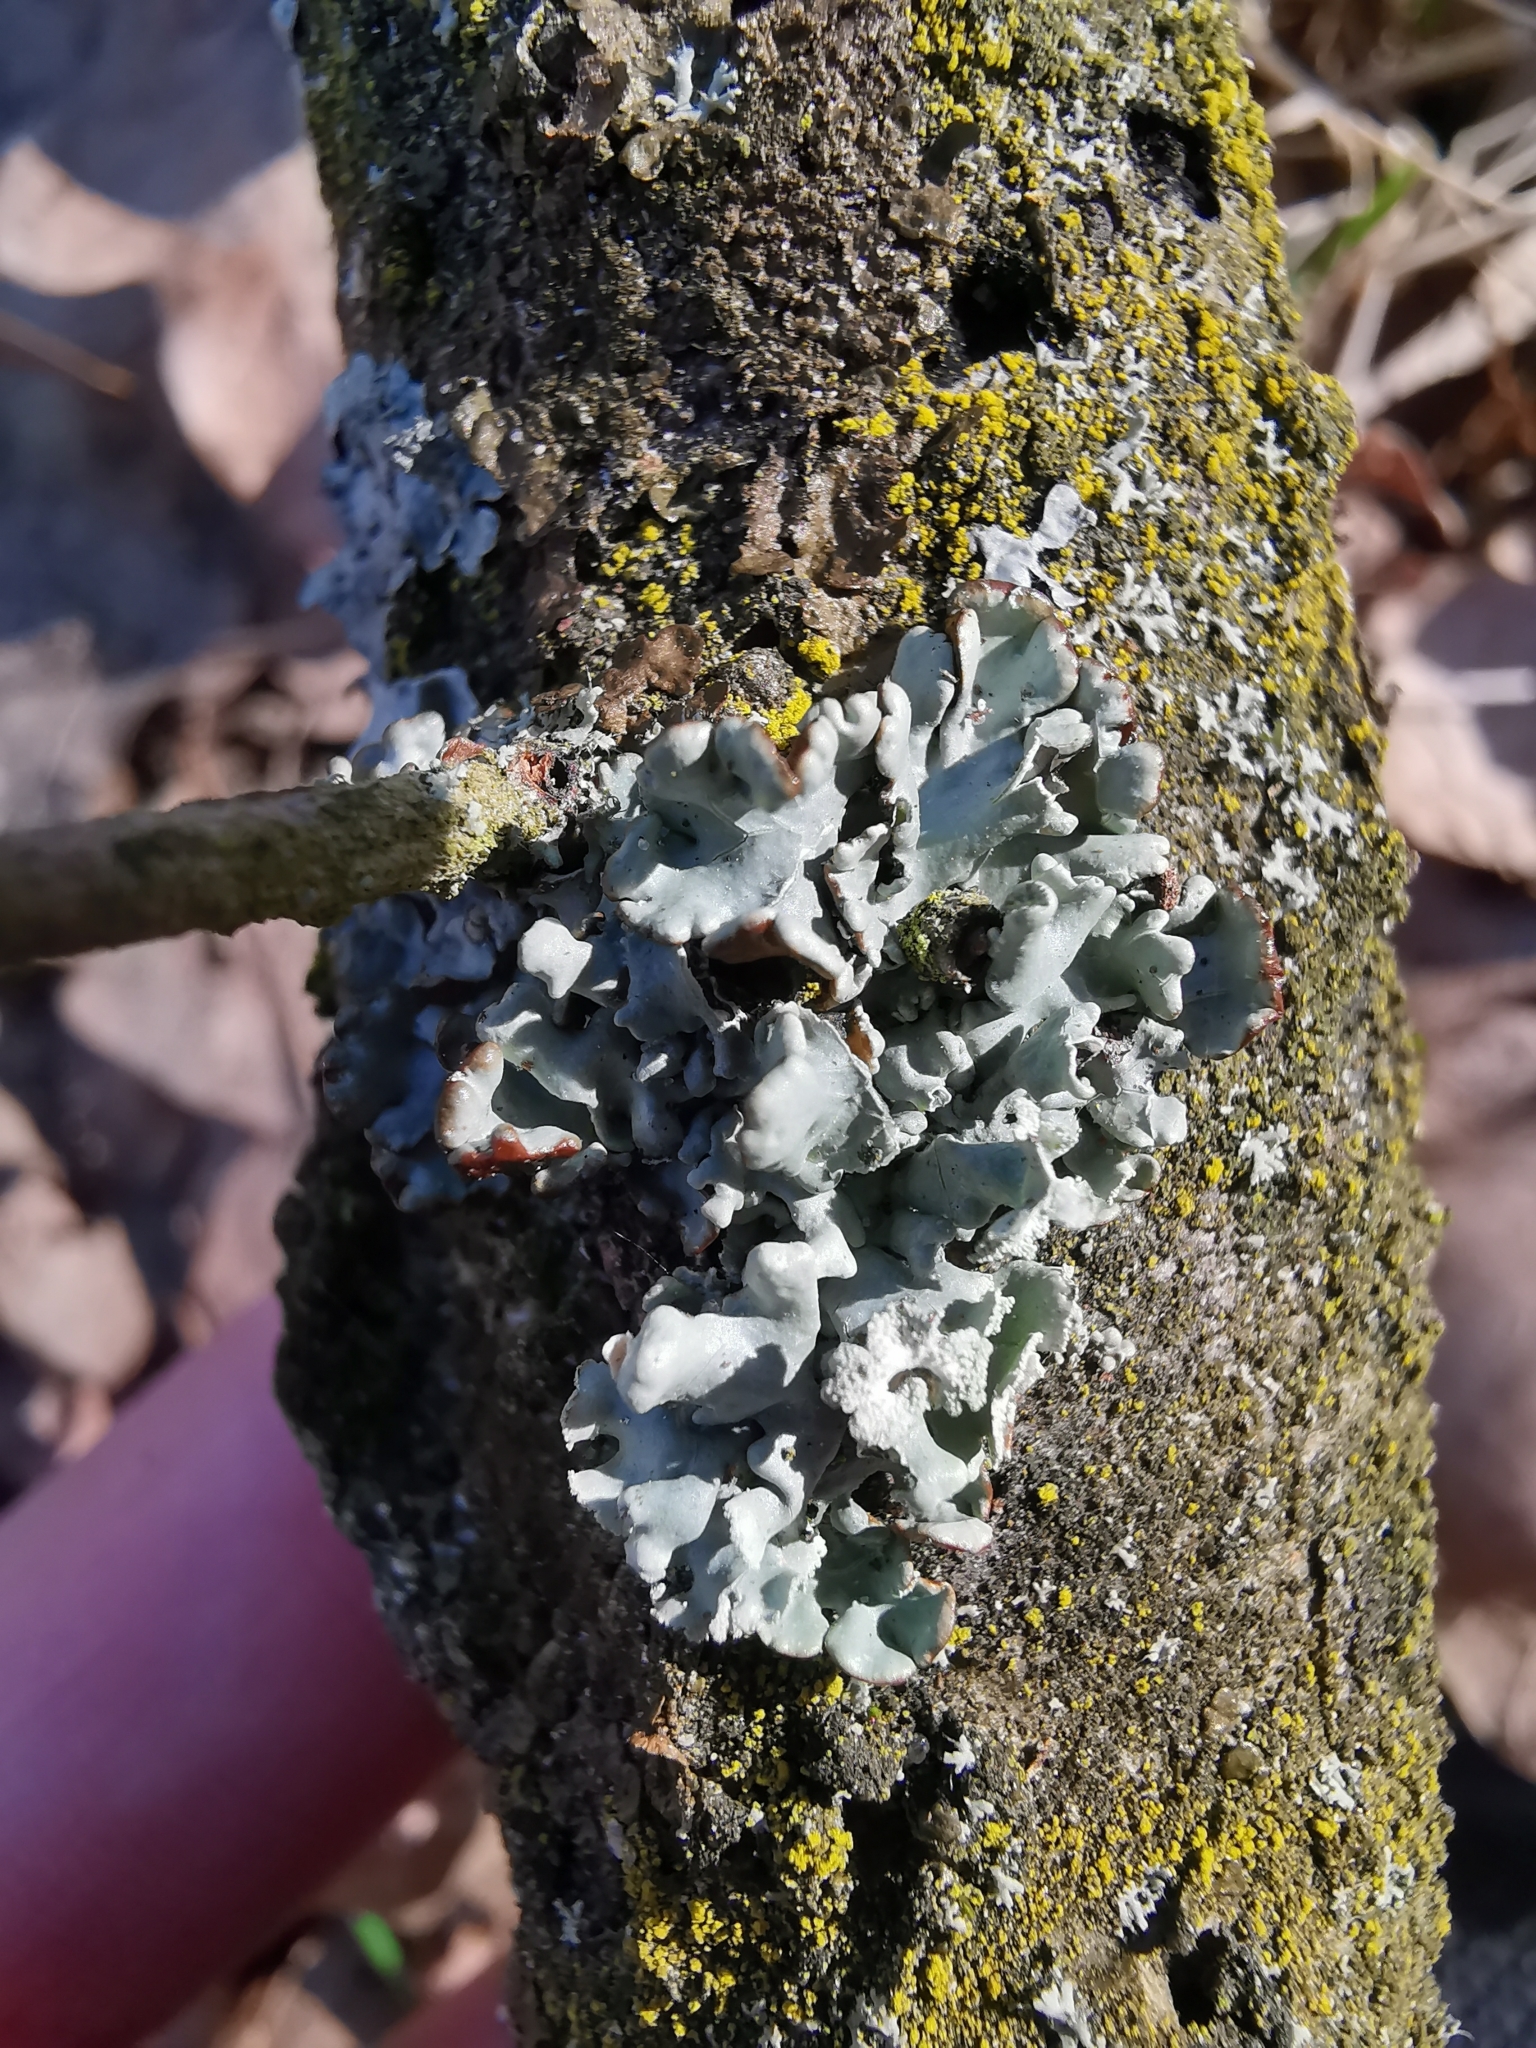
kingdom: Fungi
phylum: Ascomycota
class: Lecanoromycetes
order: Lecanorales
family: Parmeliaceae
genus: Hypogymnia
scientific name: Hypogymnia physodes
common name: Dark crottle
